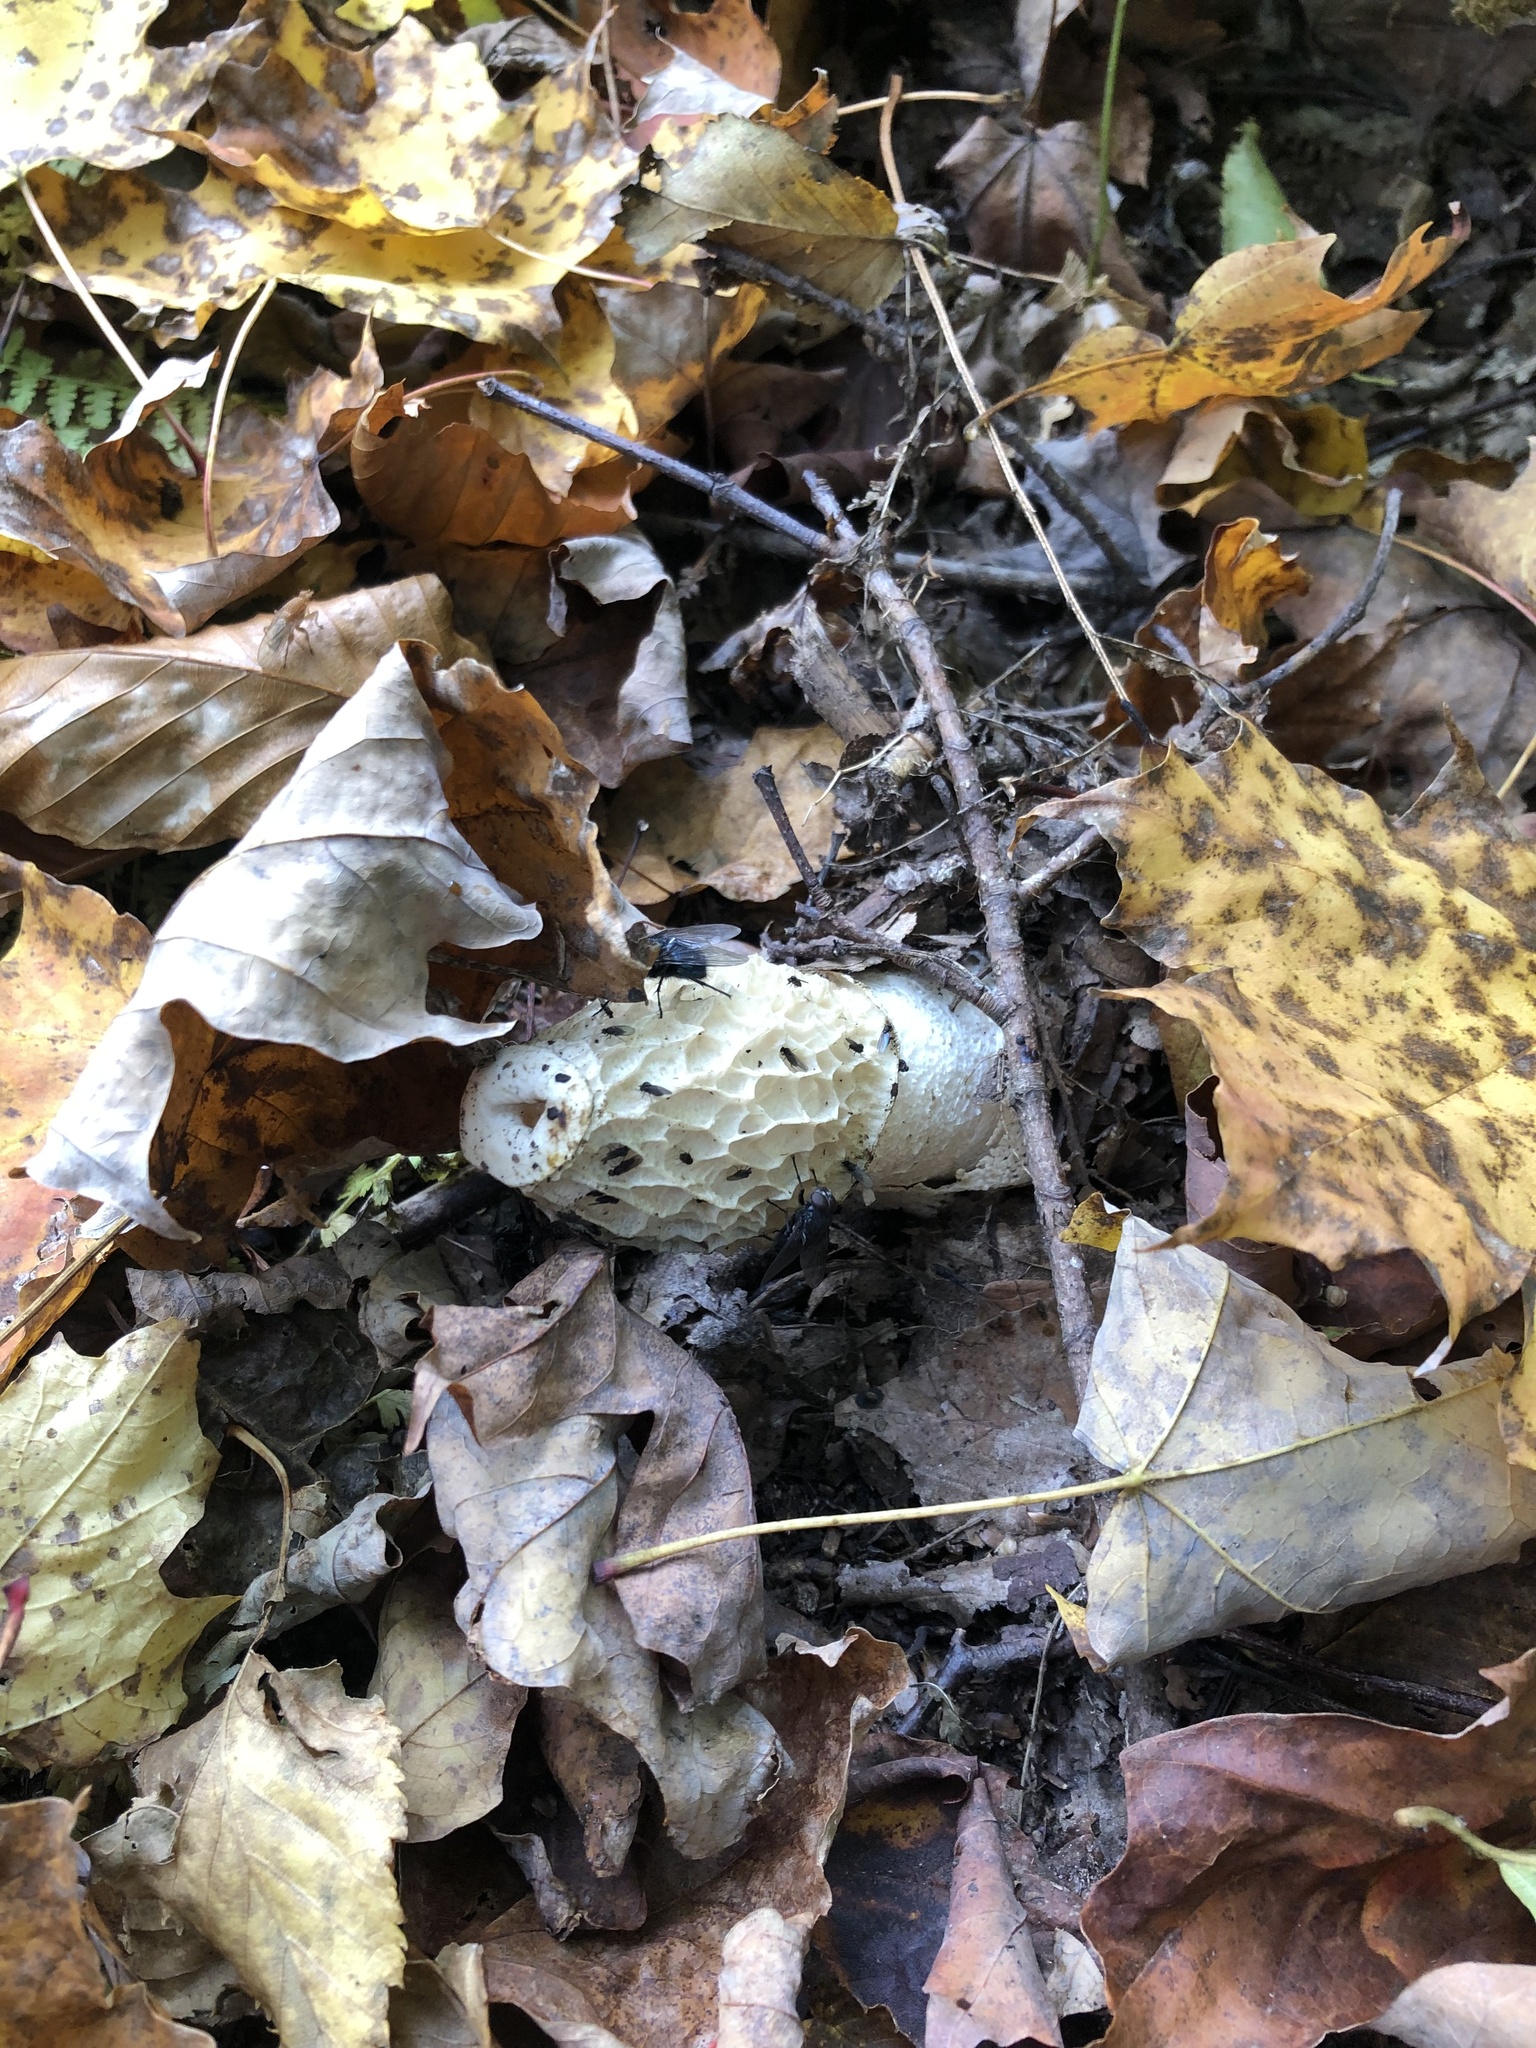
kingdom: Fungi
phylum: Basidiomycota
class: Agaricomycetes
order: Phallales
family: Phallaceae
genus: Phallus
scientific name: Phallus indusiatus
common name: Bridal veil stinkhorn
